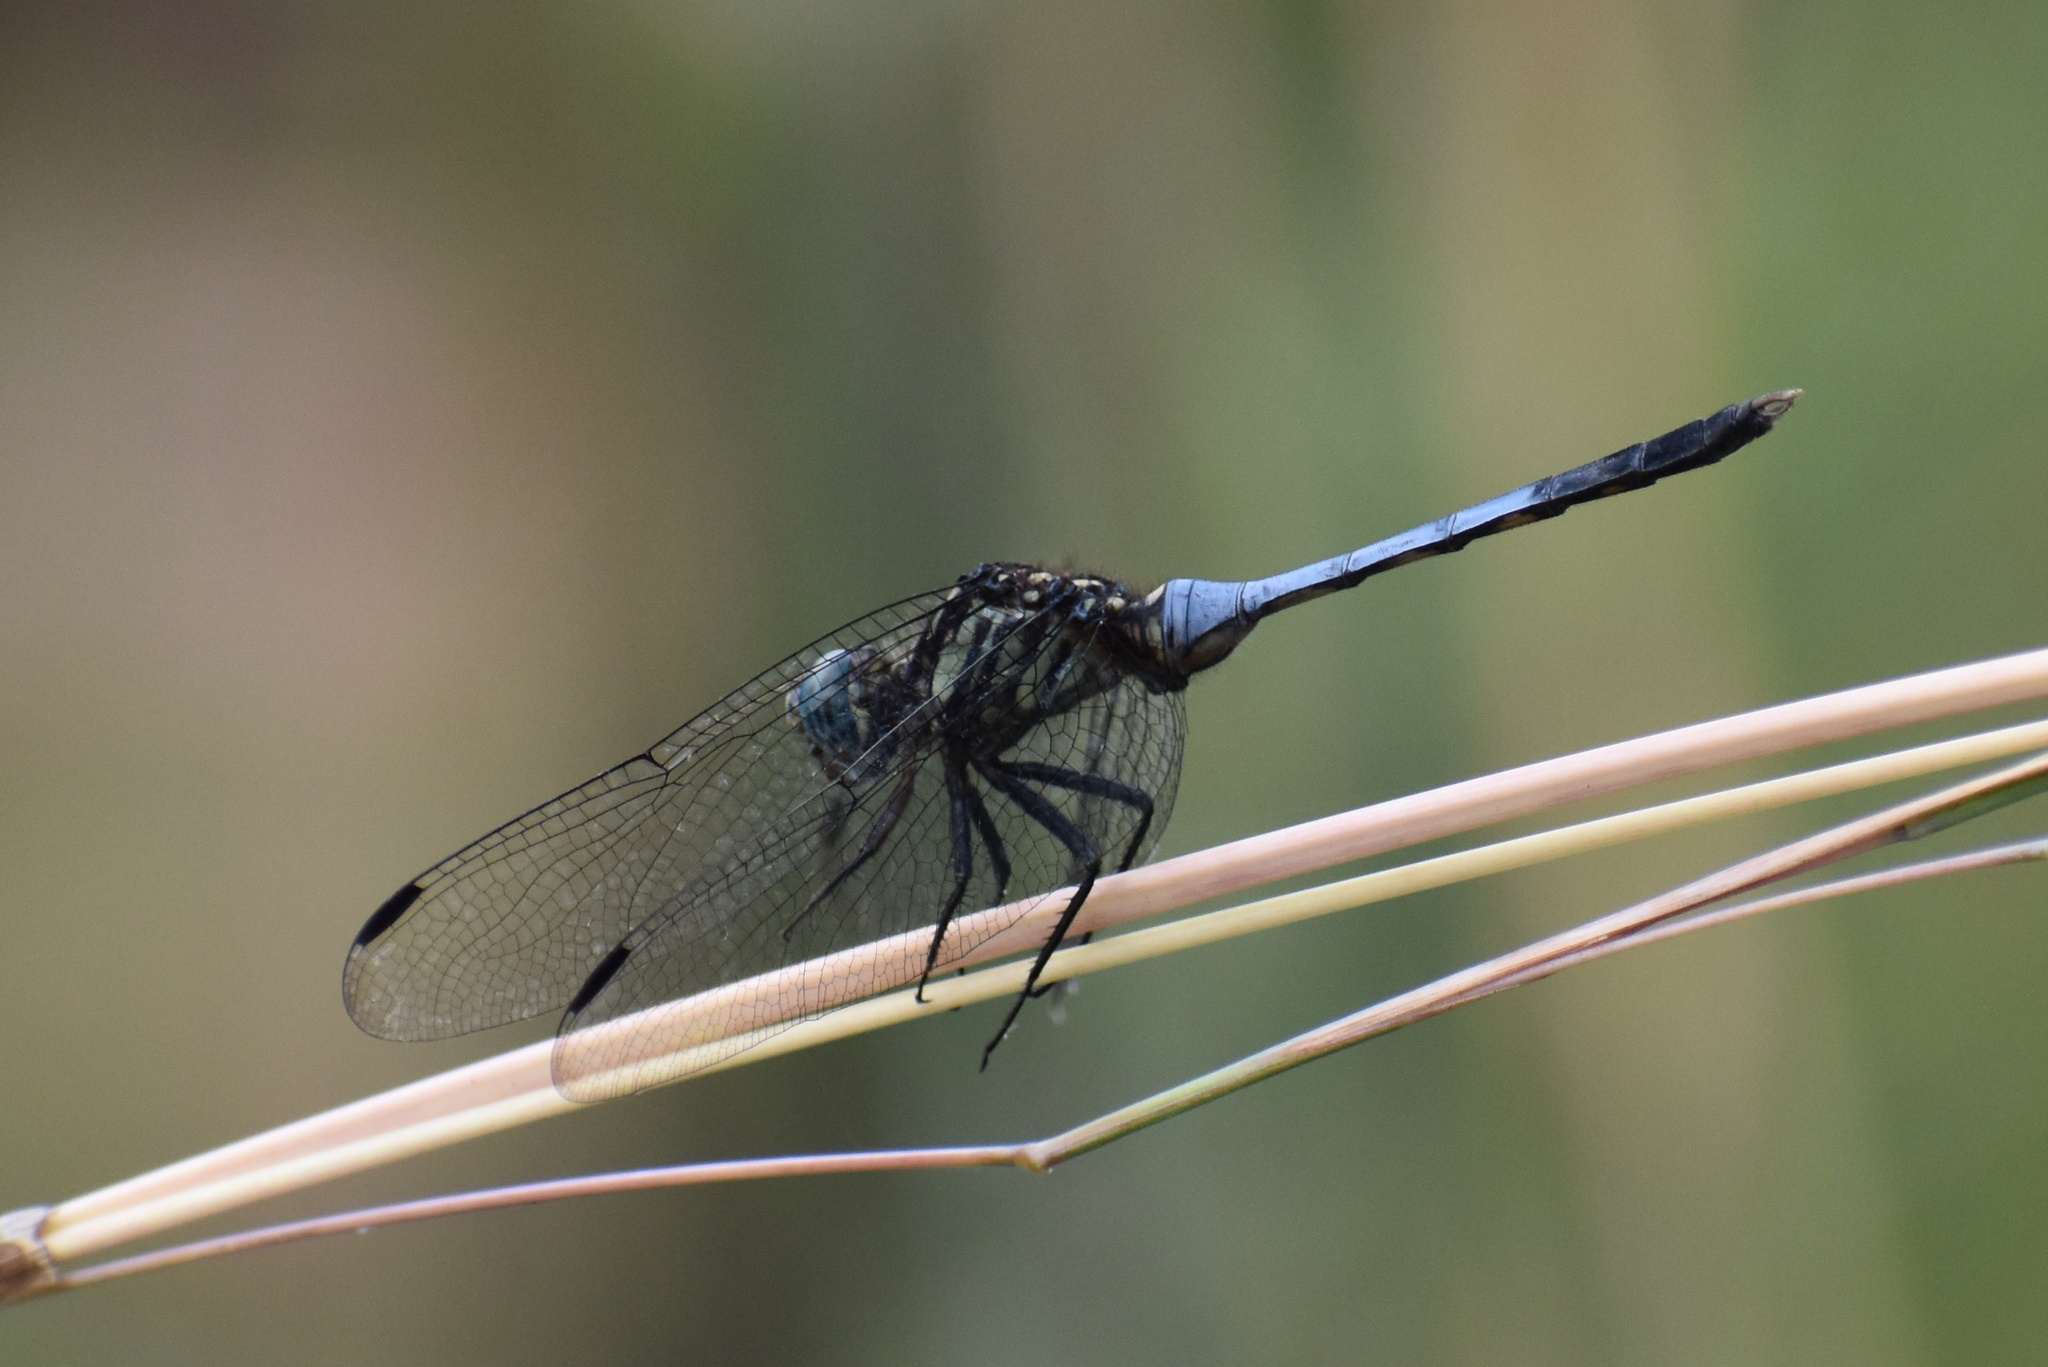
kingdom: Animalia
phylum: Arthropoda
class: Insecta
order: Odonata
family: Libellulidae
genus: Orthetrum
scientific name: Orthetrum julia
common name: Julia skimmer
